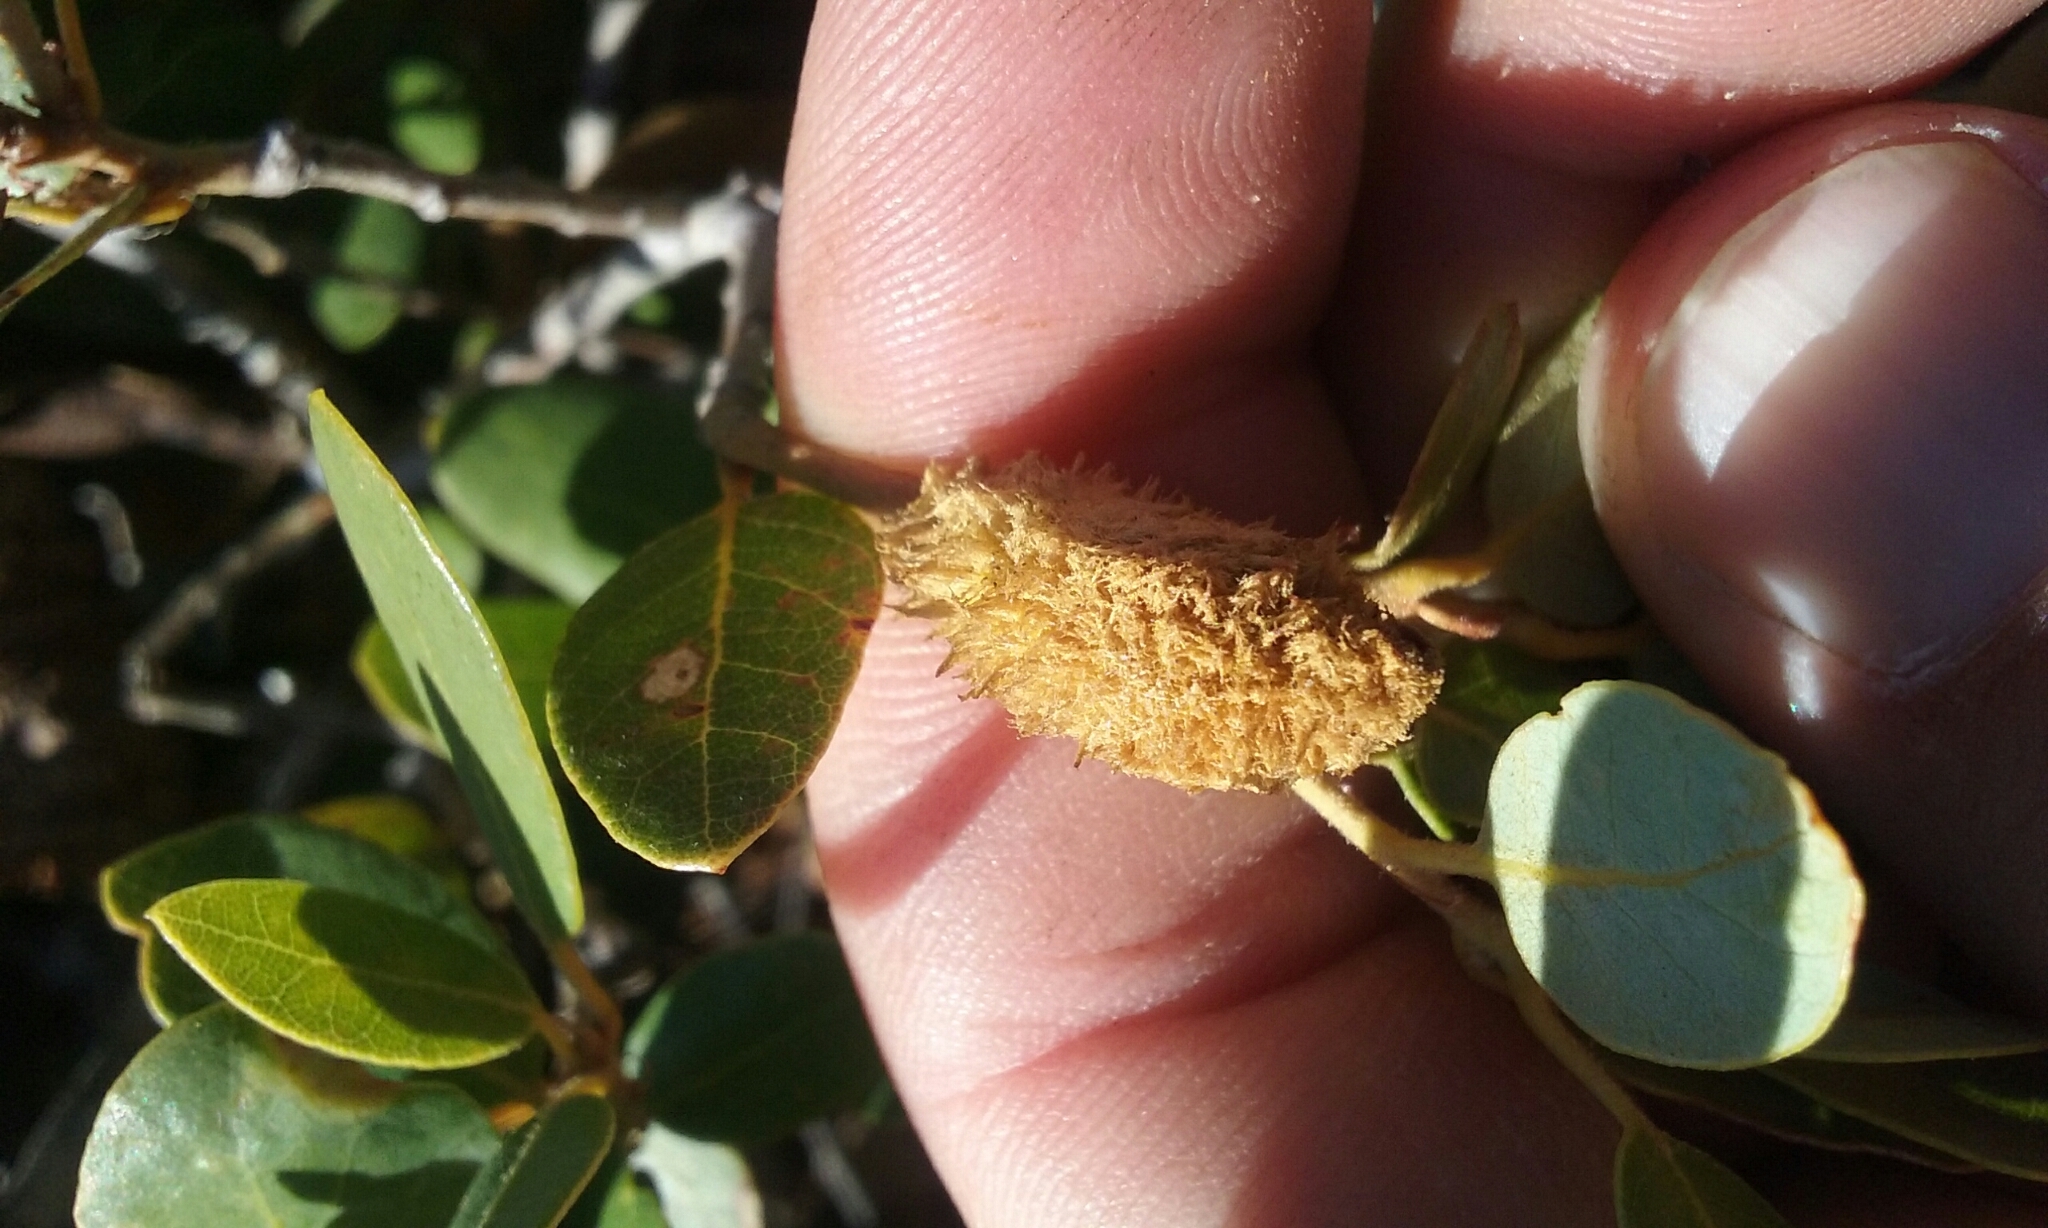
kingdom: Animalia
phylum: Arthropoda
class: Insecta
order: Hymenoptera
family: Cynipidae
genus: Heteroecus
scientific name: Heteroecus
